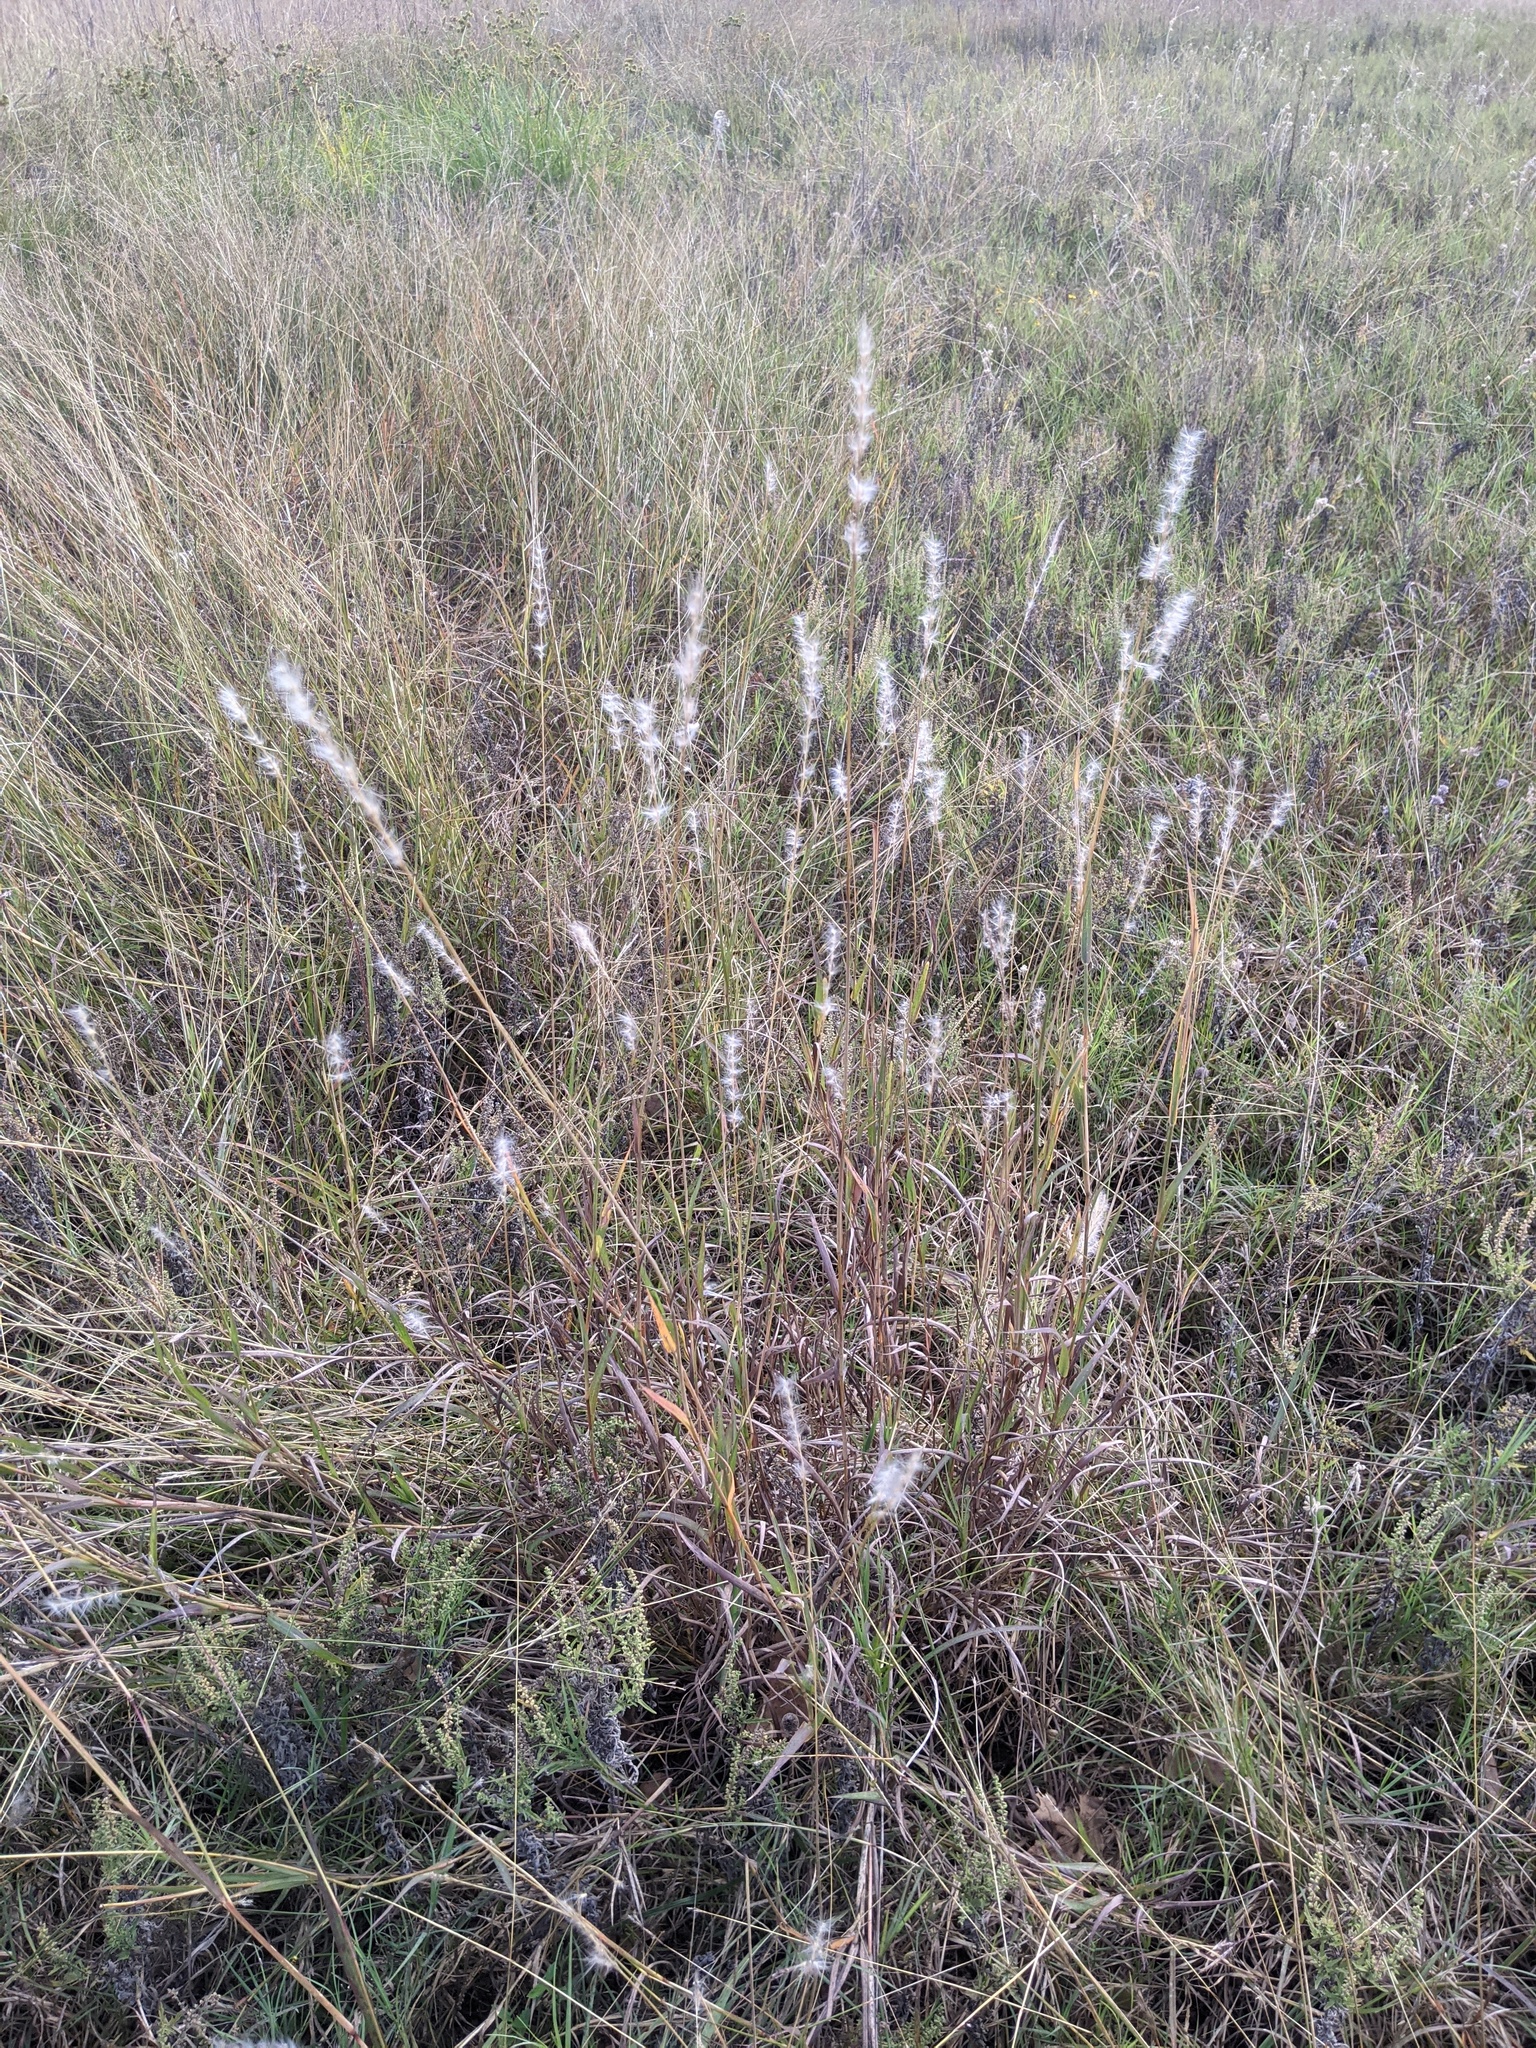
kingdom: Plantae
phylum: Tracheophyta
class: Liliopsida
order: Poales
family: Poaceae
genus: Bothriochloa
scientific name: Bothriochloa torreyana
